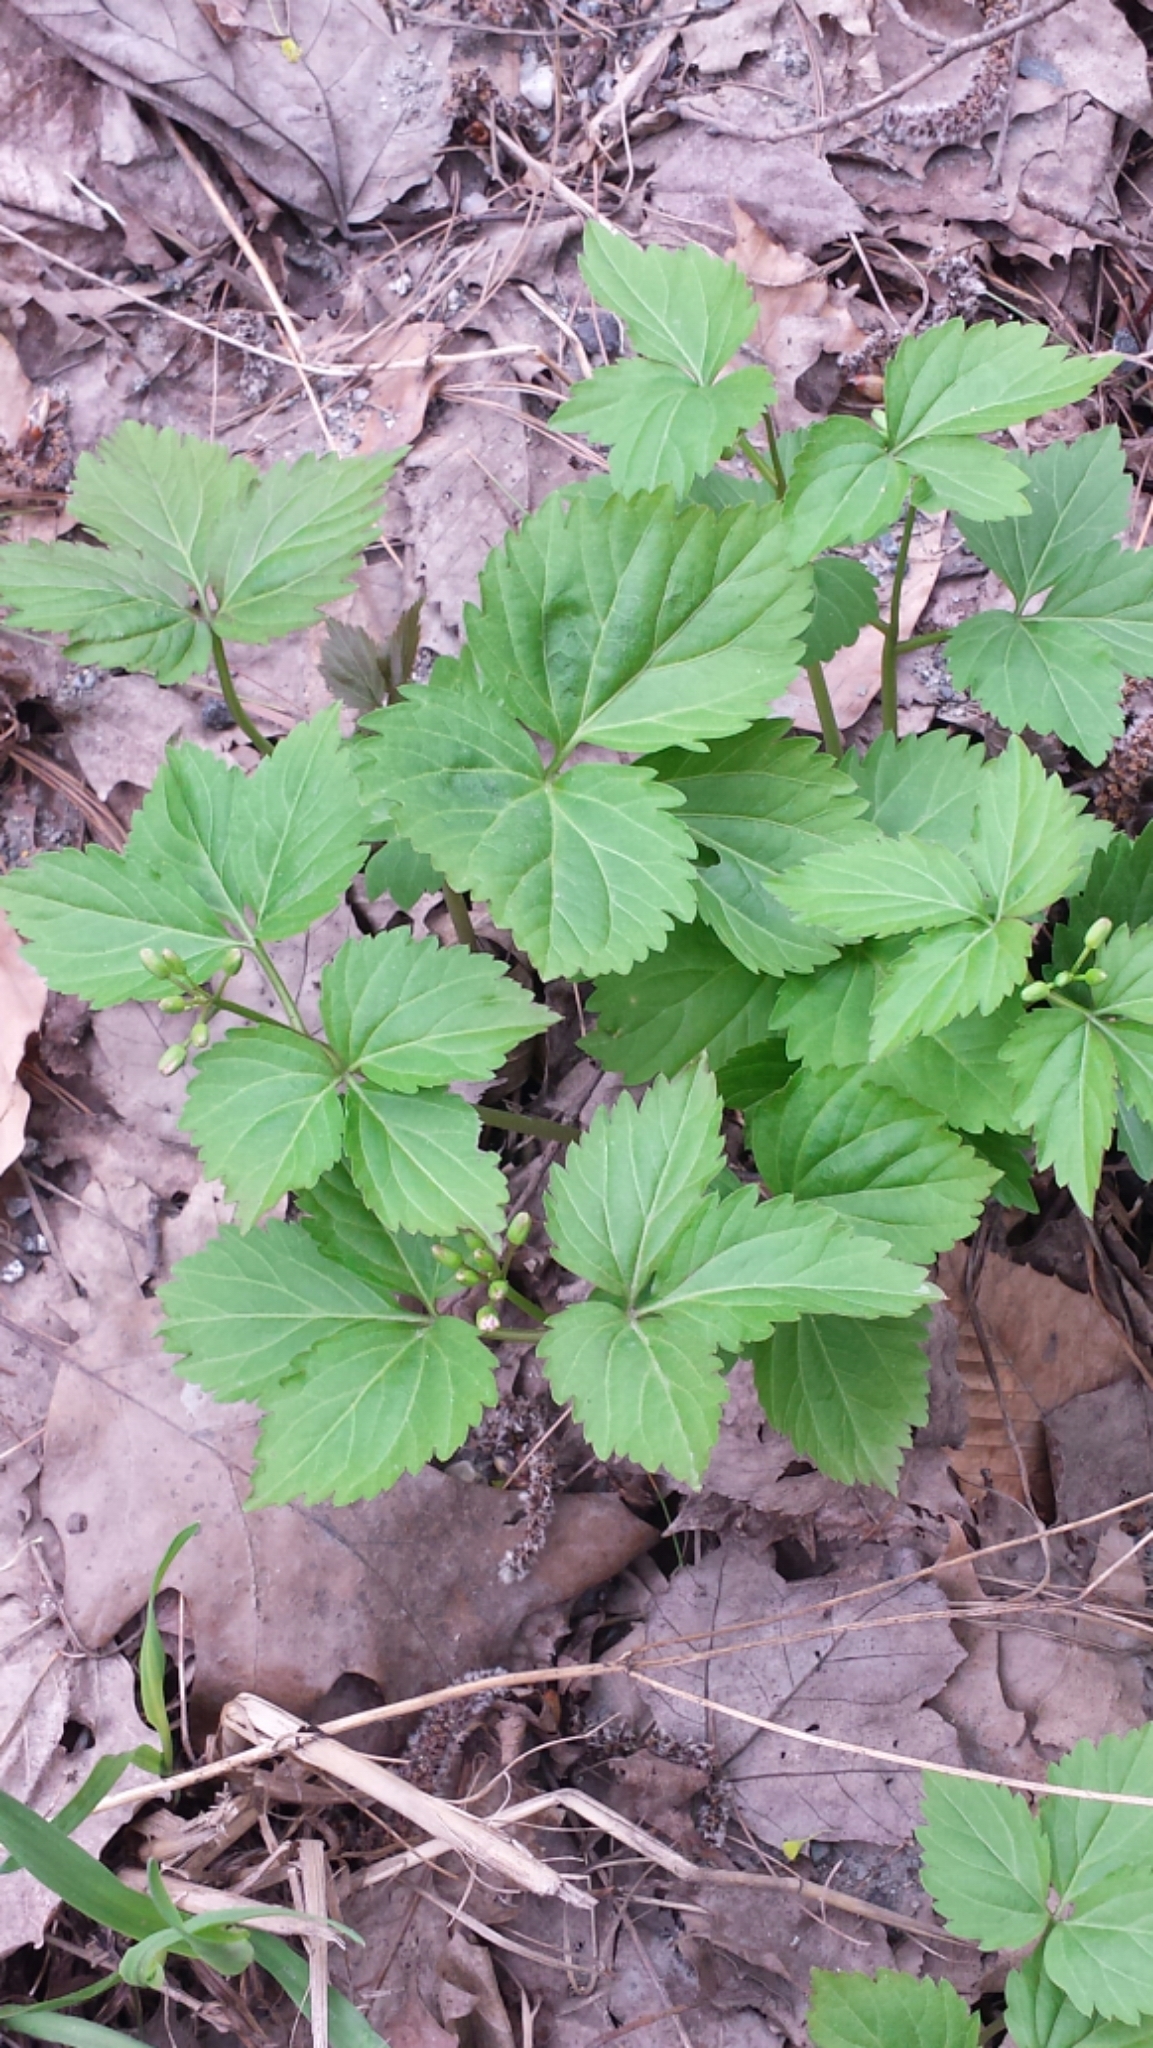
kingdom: Plantae
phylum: Tracheophyta
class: Magnoliopsida
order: Brassicales
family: Brassicaceae
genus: Cardamine
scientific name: Cardamine diphylla
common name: Broad-leaved toothwort
